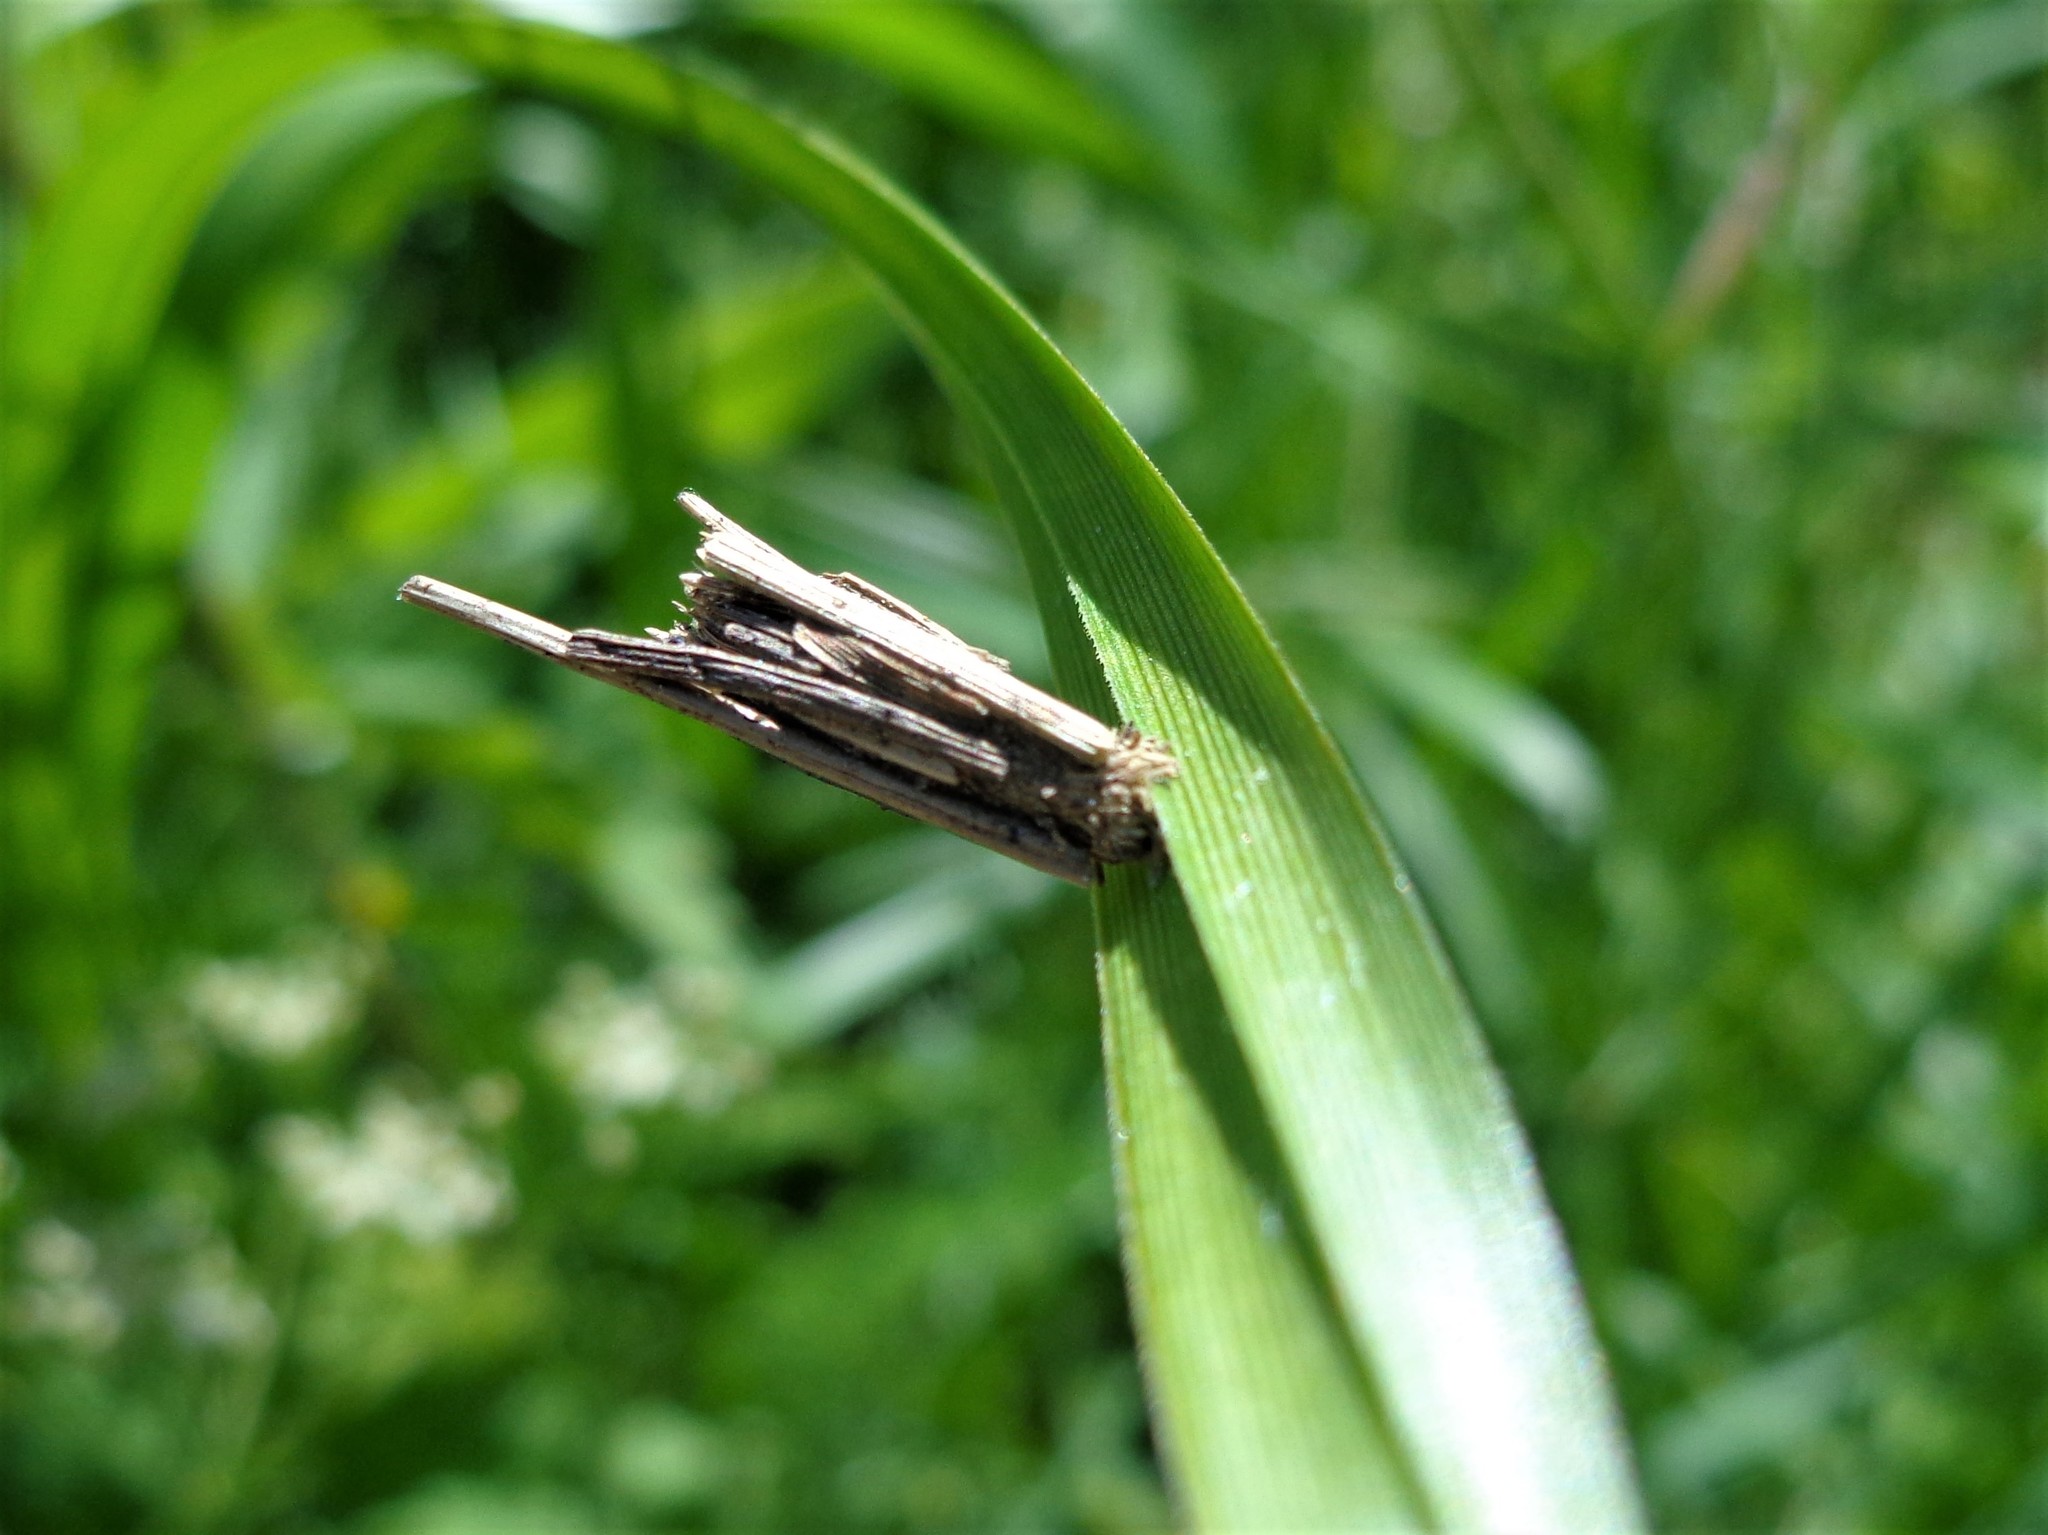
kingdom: Animalia
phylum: Arthropoda
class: Insecta
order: Lepidoptera
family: Psychidae
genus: Psyche
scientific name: Psyche casta
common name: Common sweep
